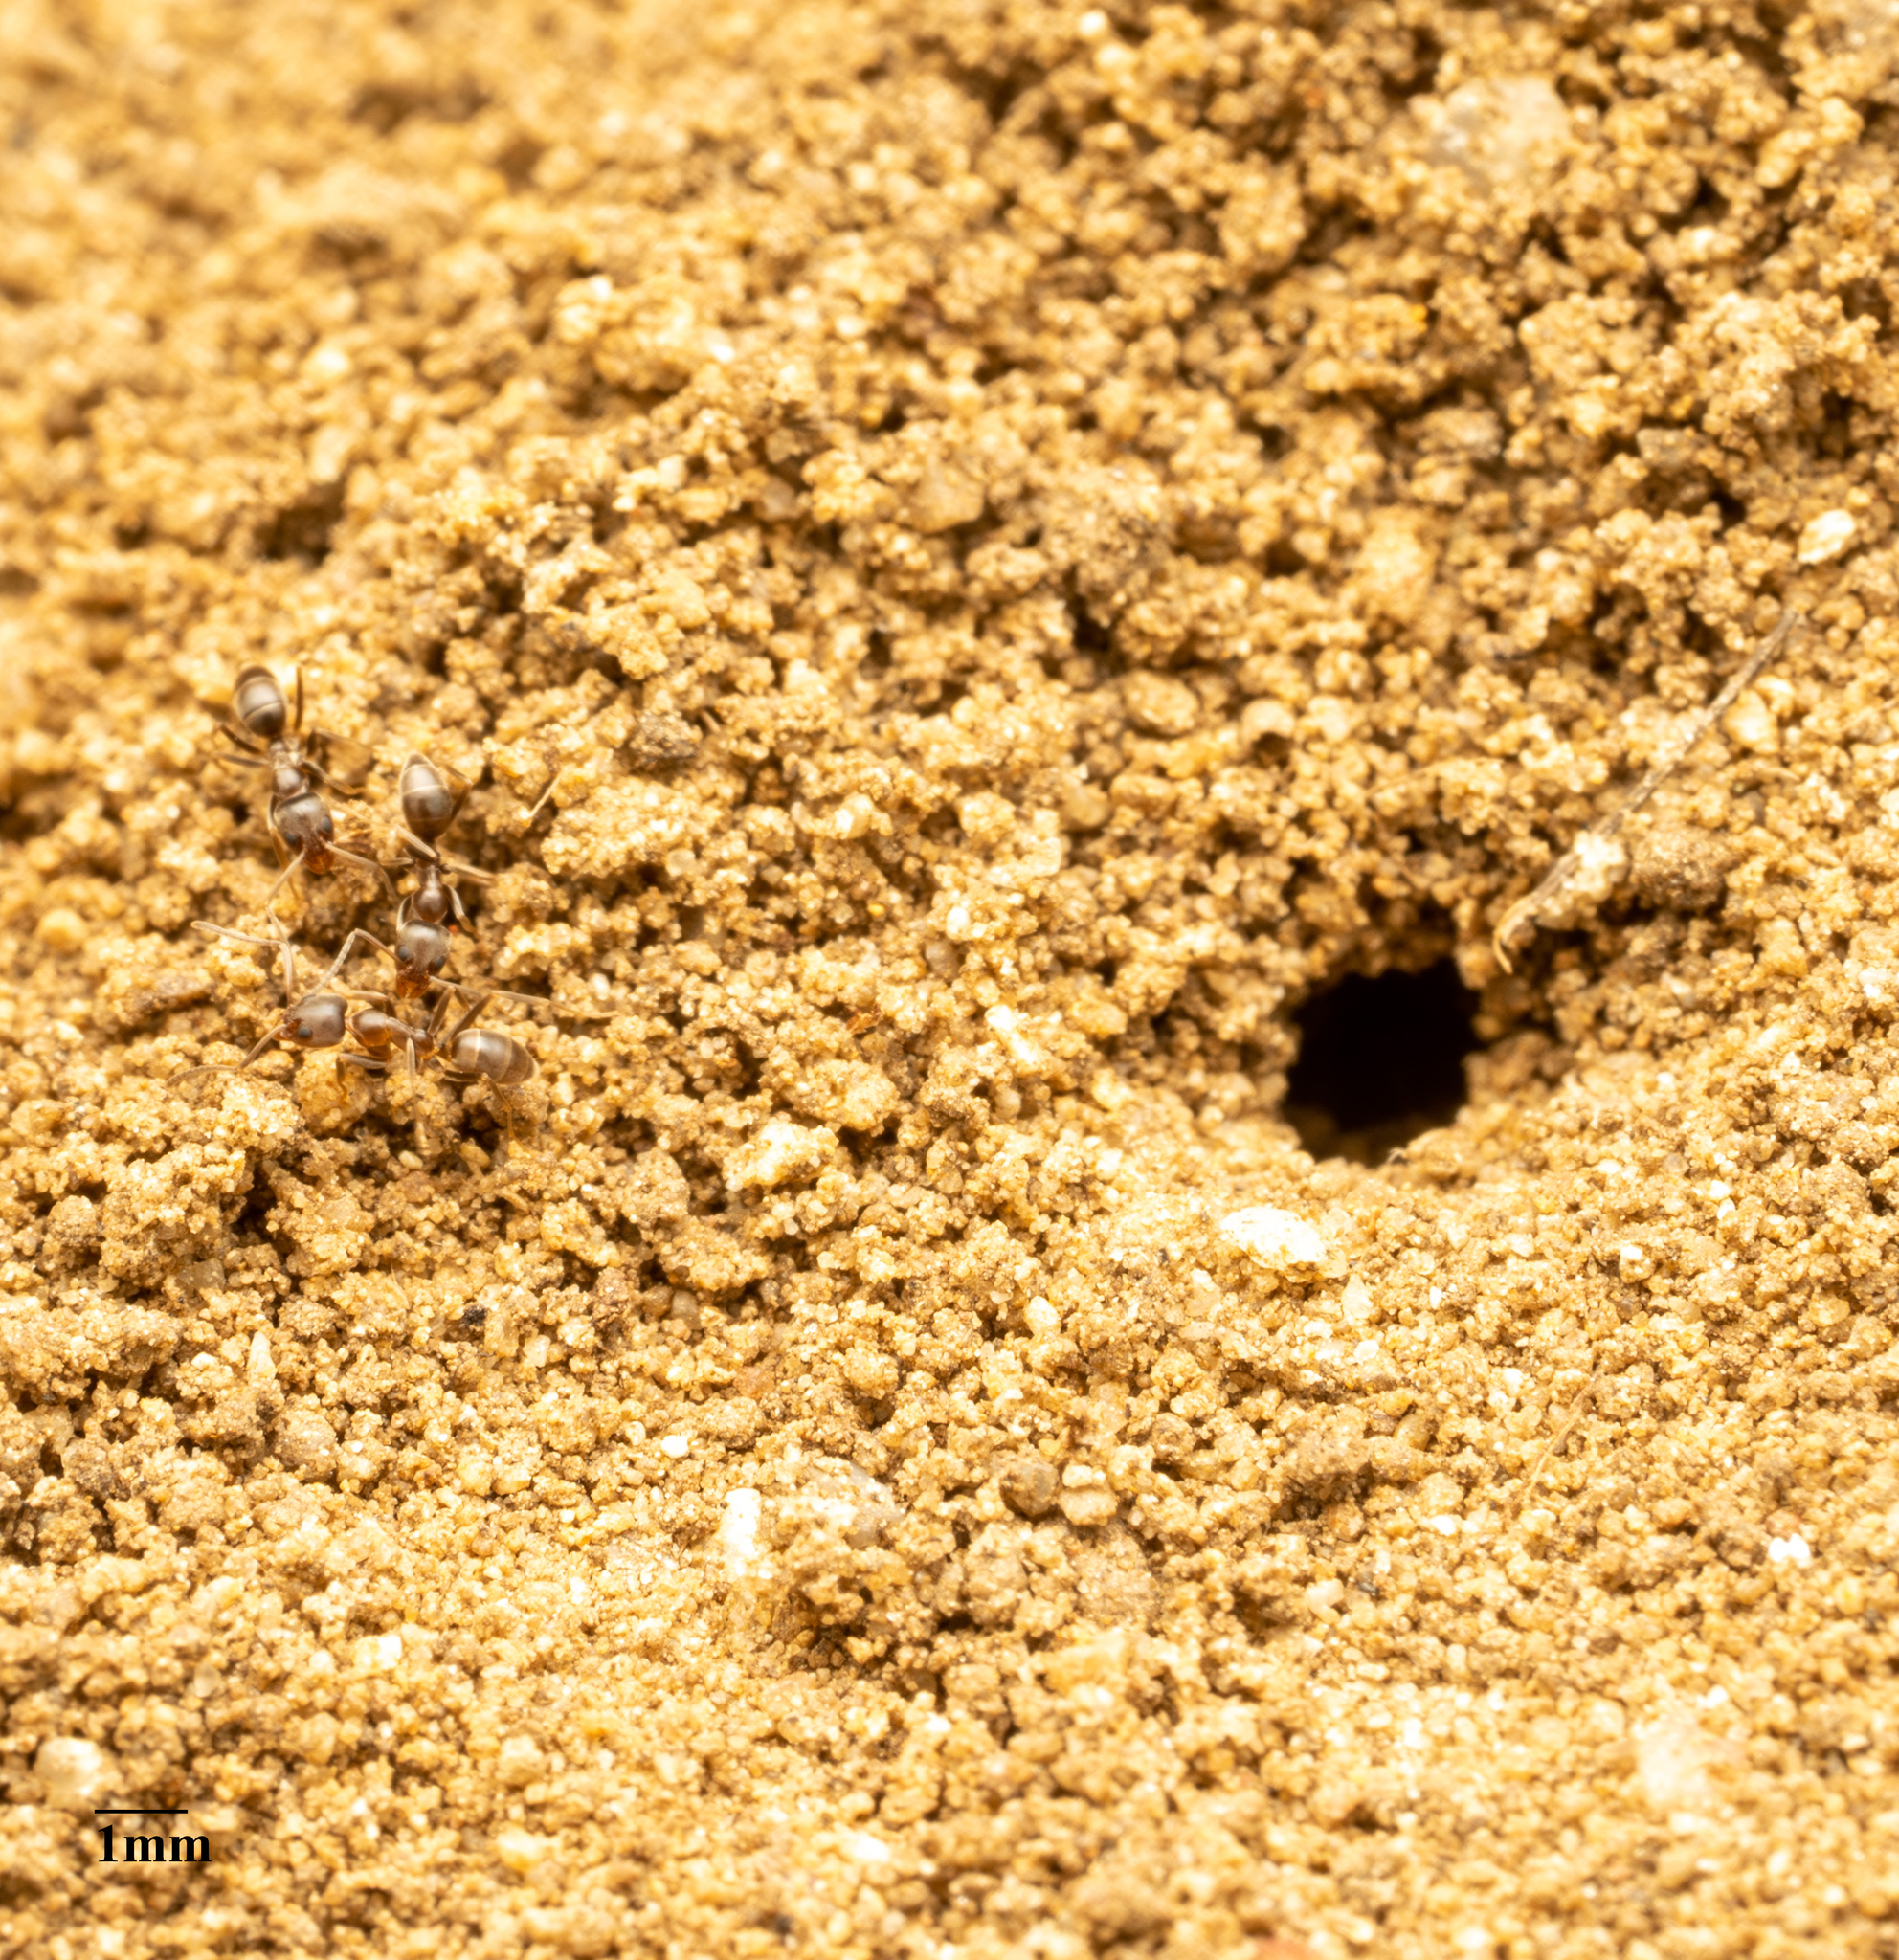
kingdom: Animalia
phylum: Arthropoda
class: Insecta
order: Hymenoptera
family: Formicidae
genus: Linepithema
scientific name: Linepithema humile
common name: Argentine ant
